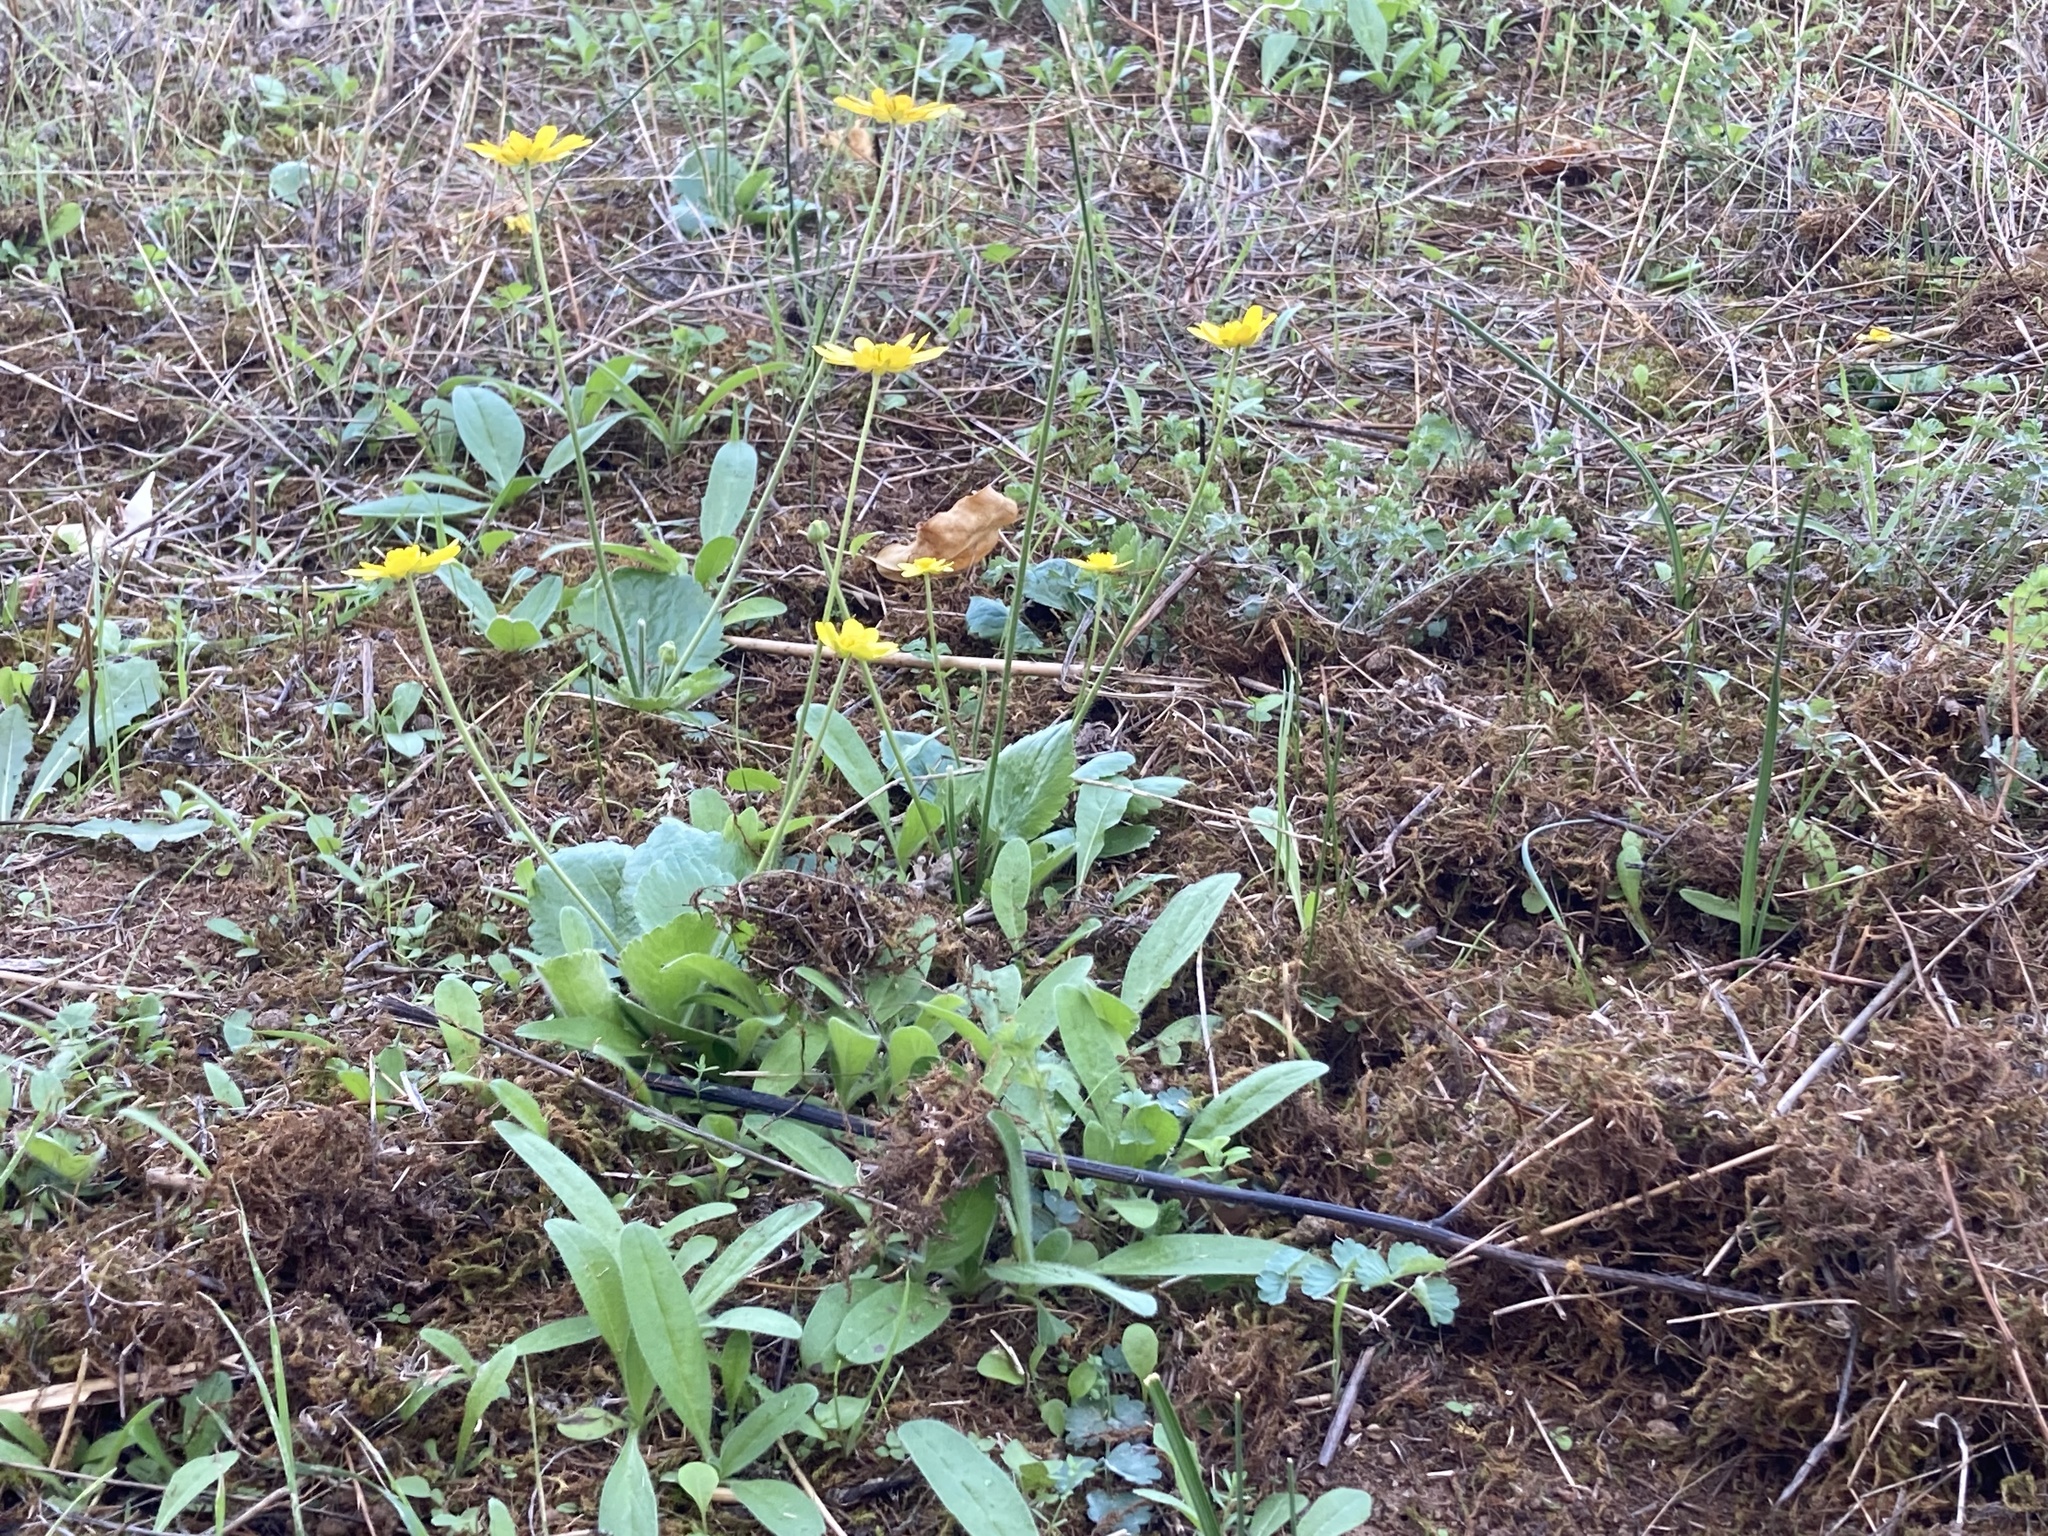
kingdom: Plantae
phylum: Tracheophyta
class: Magnoliopsida
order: Ranunculales
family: Ranunculaceae
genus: Ranunculus
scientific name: Ranunculus bullatus
